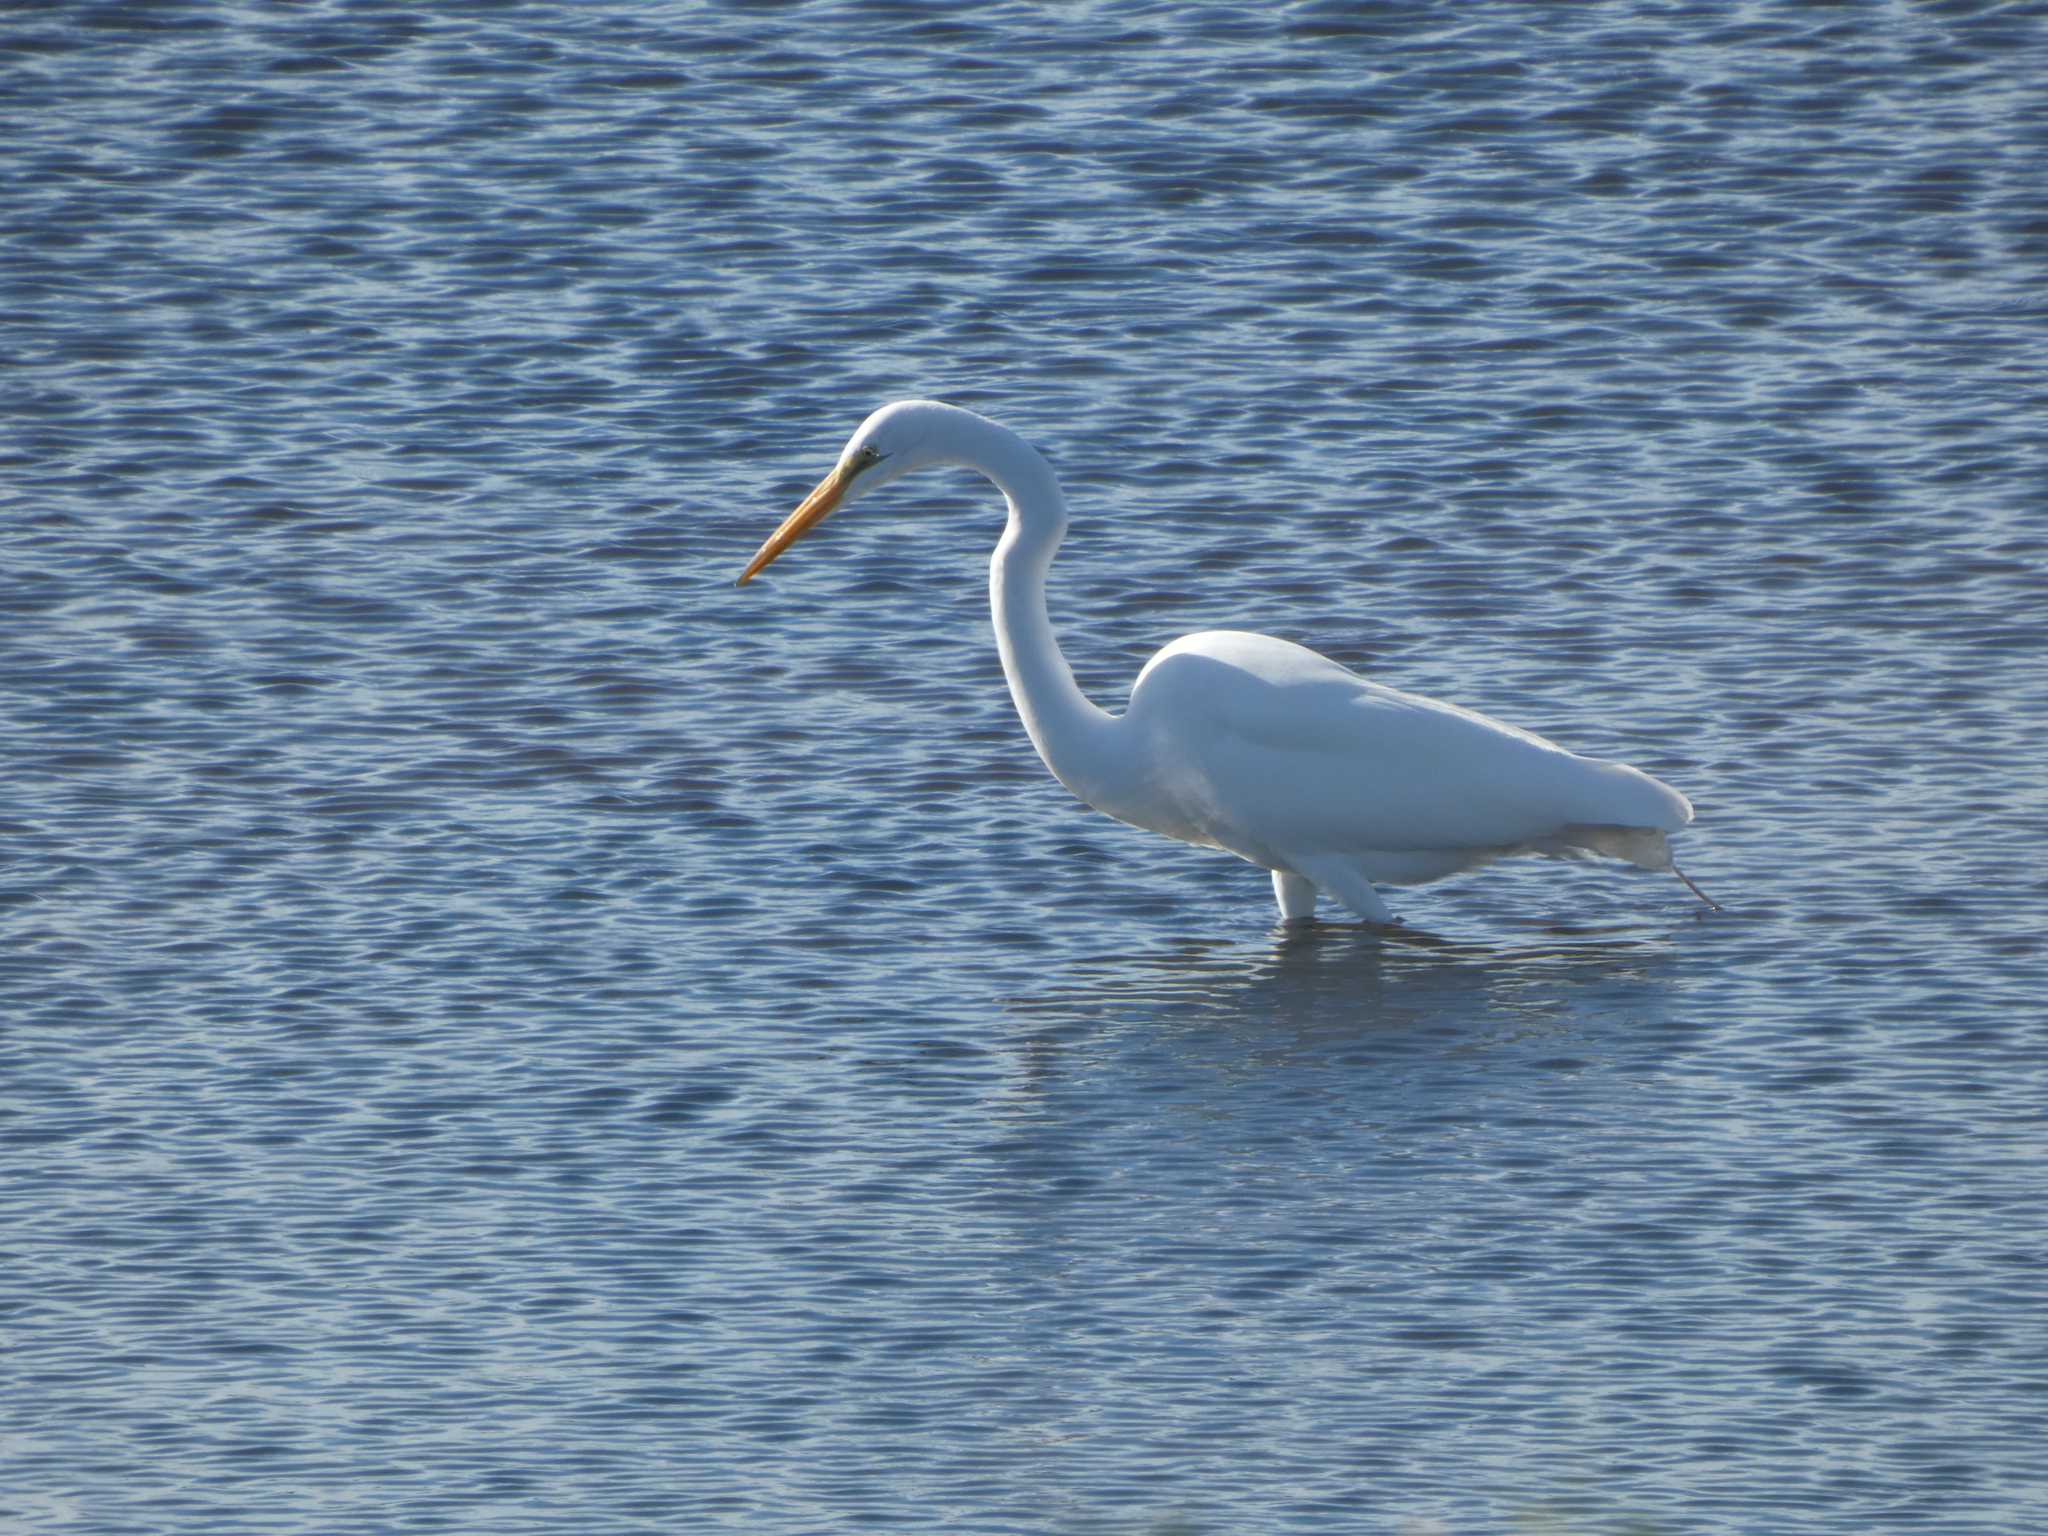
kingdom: Animalia
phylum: Chordata
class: Aves
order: Pelecaniformes
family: Ardeidae
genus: Ardea
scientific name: Ardea alba
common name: Great egret
